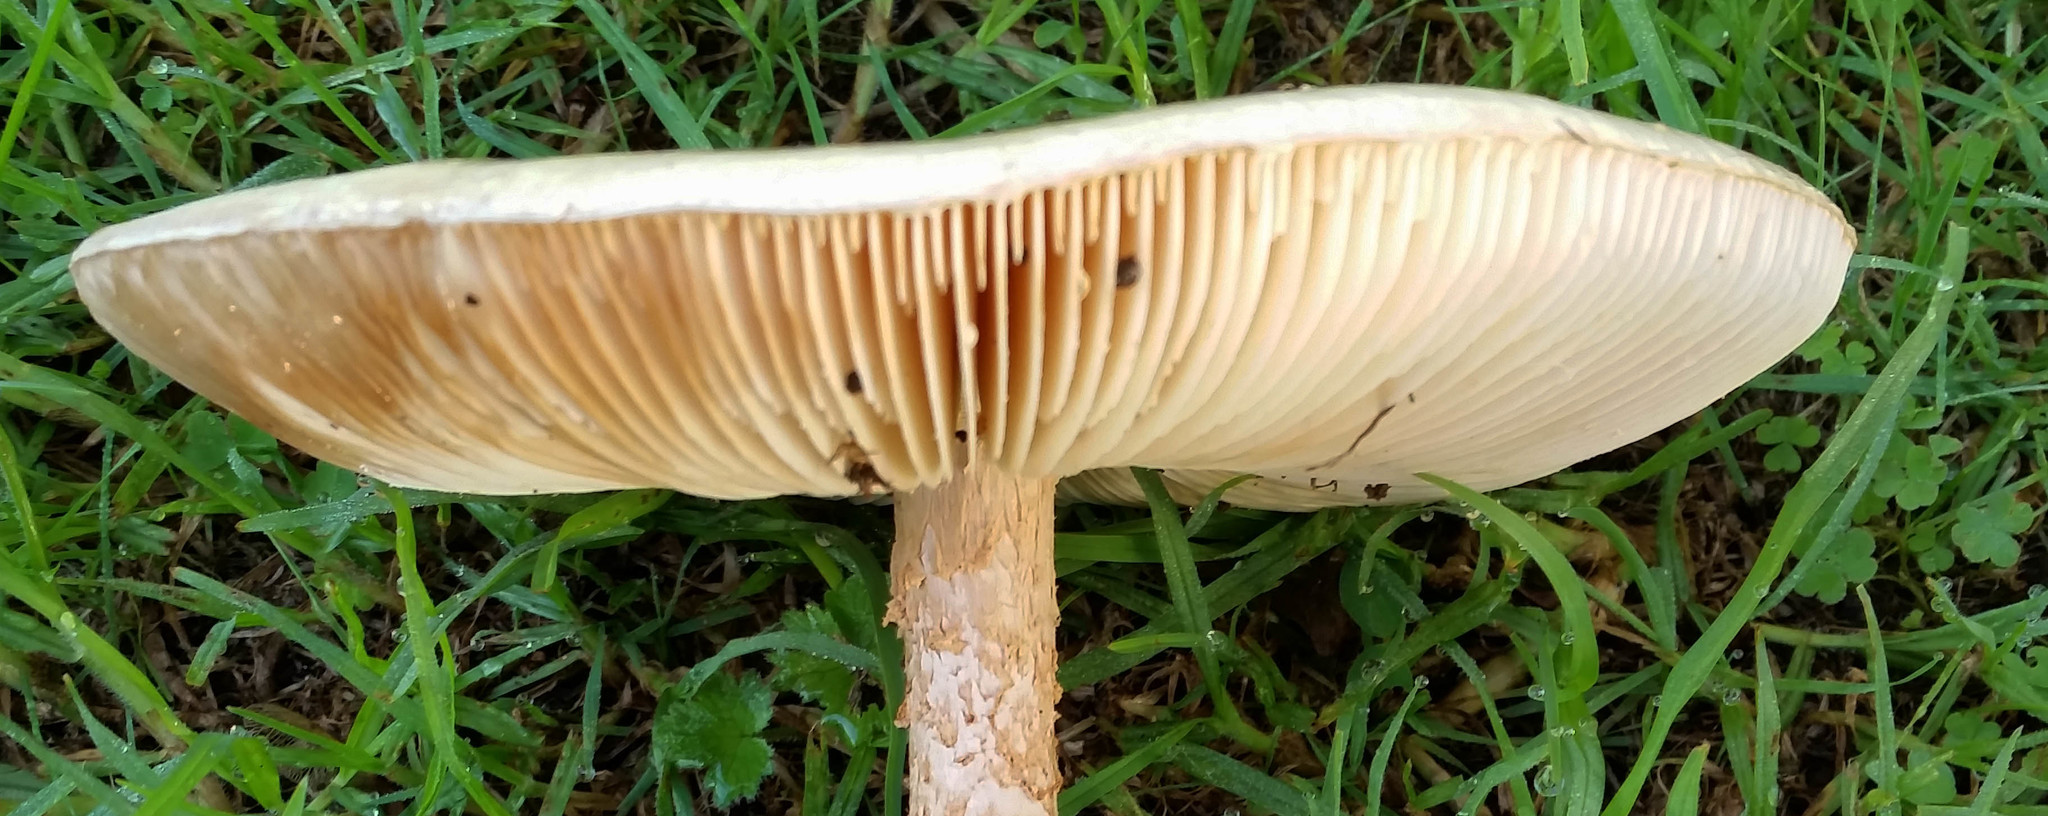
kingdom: Fungi
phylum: Basidiomycota
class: Agaricomycetes
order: Agaricales
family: Amanitaceae
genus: Amanita
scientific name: Amanita nauseosa
